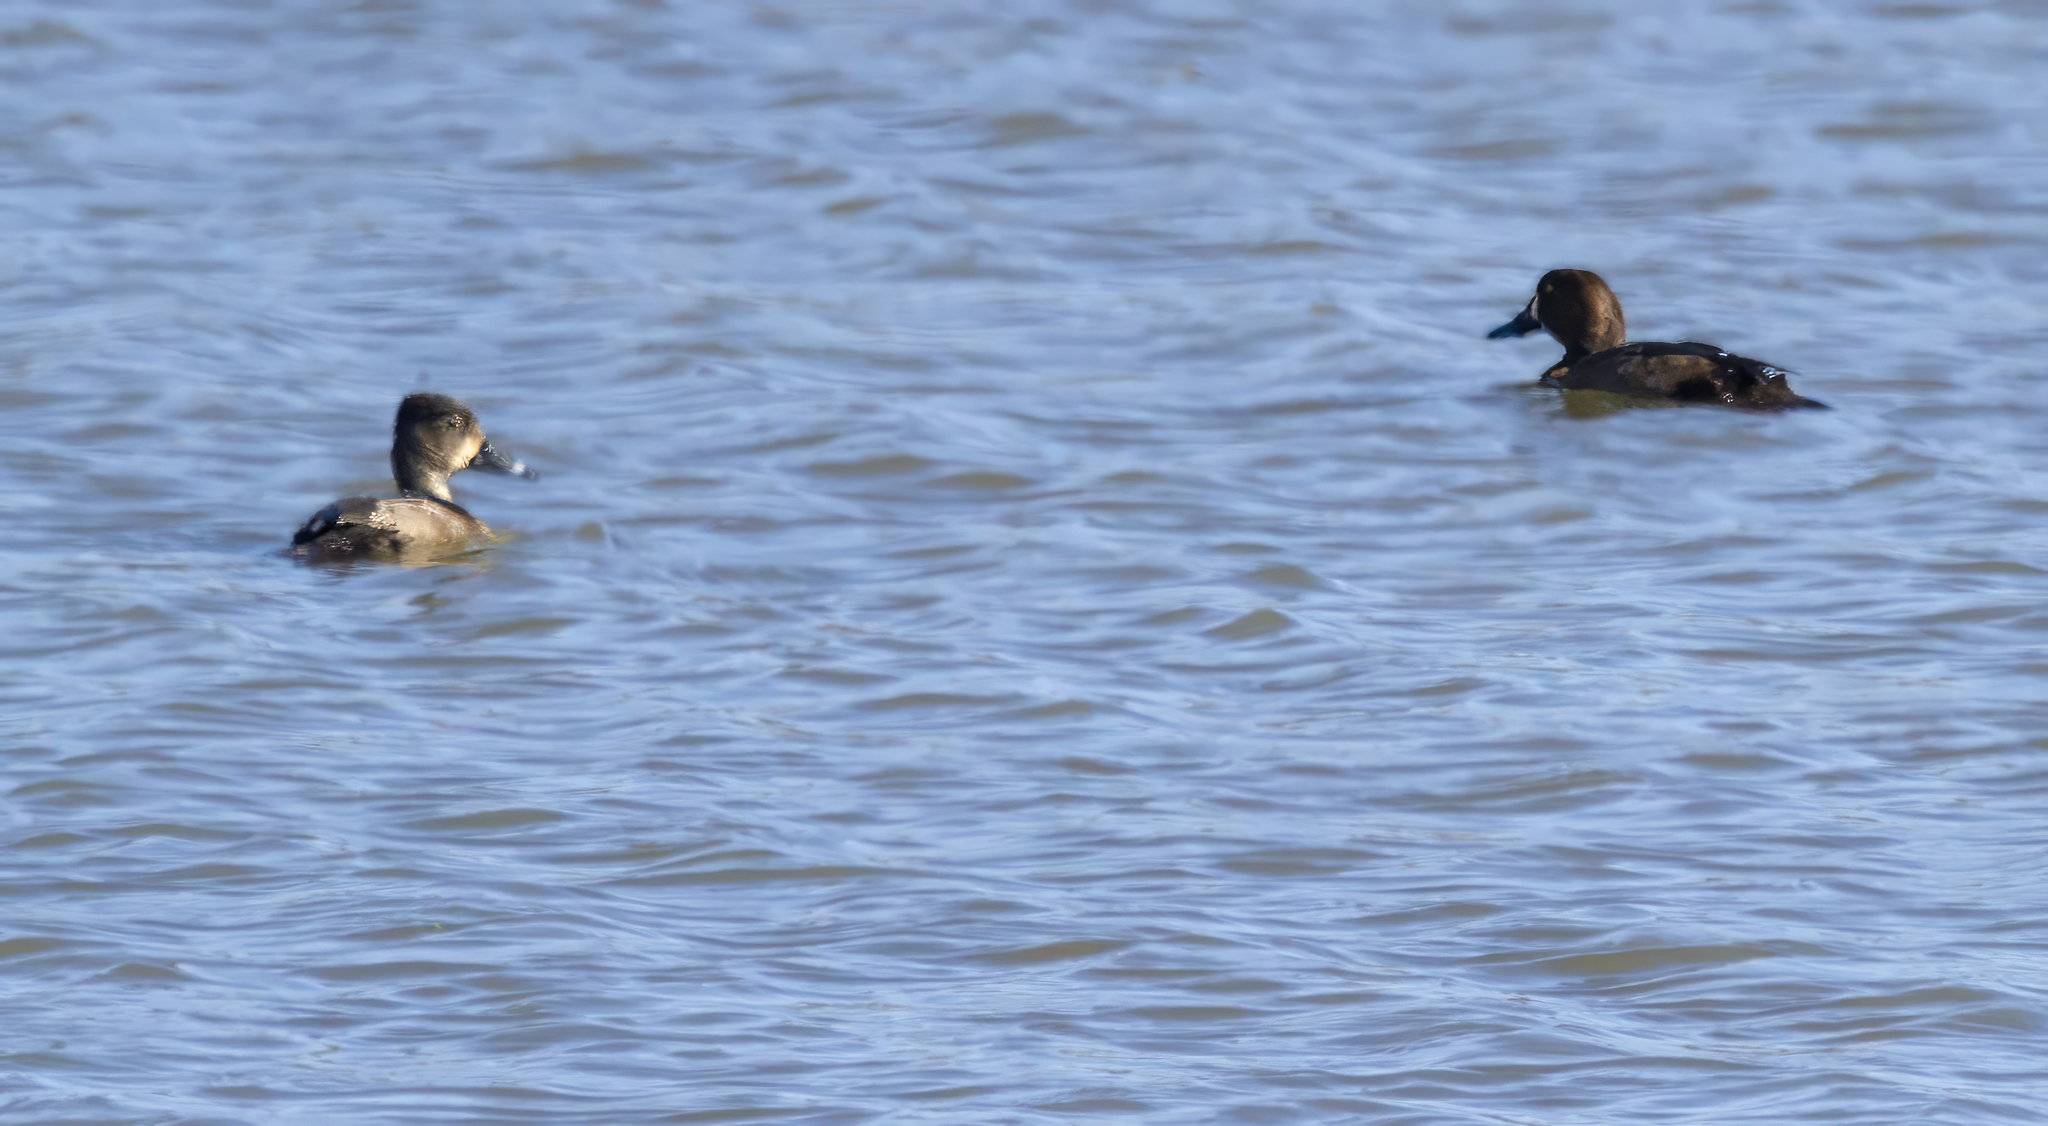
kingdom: Animalia
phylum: Chordata
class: Aves
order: Anseriformes
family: Anatidae
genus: Aythya
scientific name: Aythya collaris
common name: Ring-necked duck
